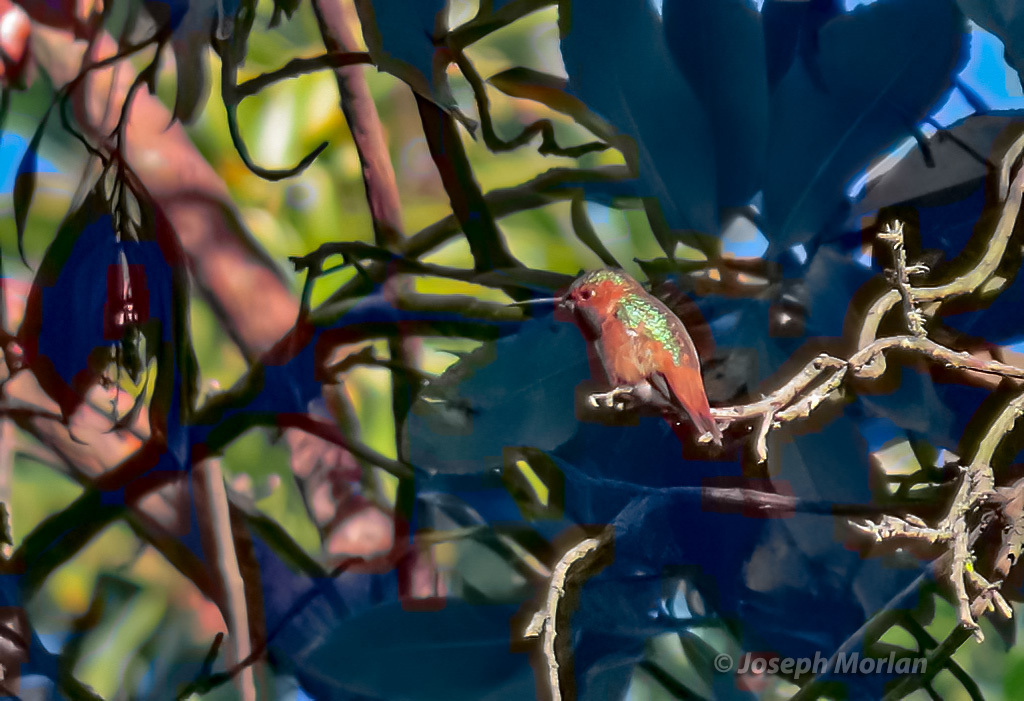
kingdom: Animalia
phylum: Chordata
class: Aves
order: Apodiformes
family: Trochilidae
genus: Selasphorus
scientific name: Selasphorus sasin
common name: Allen's hummingbird
